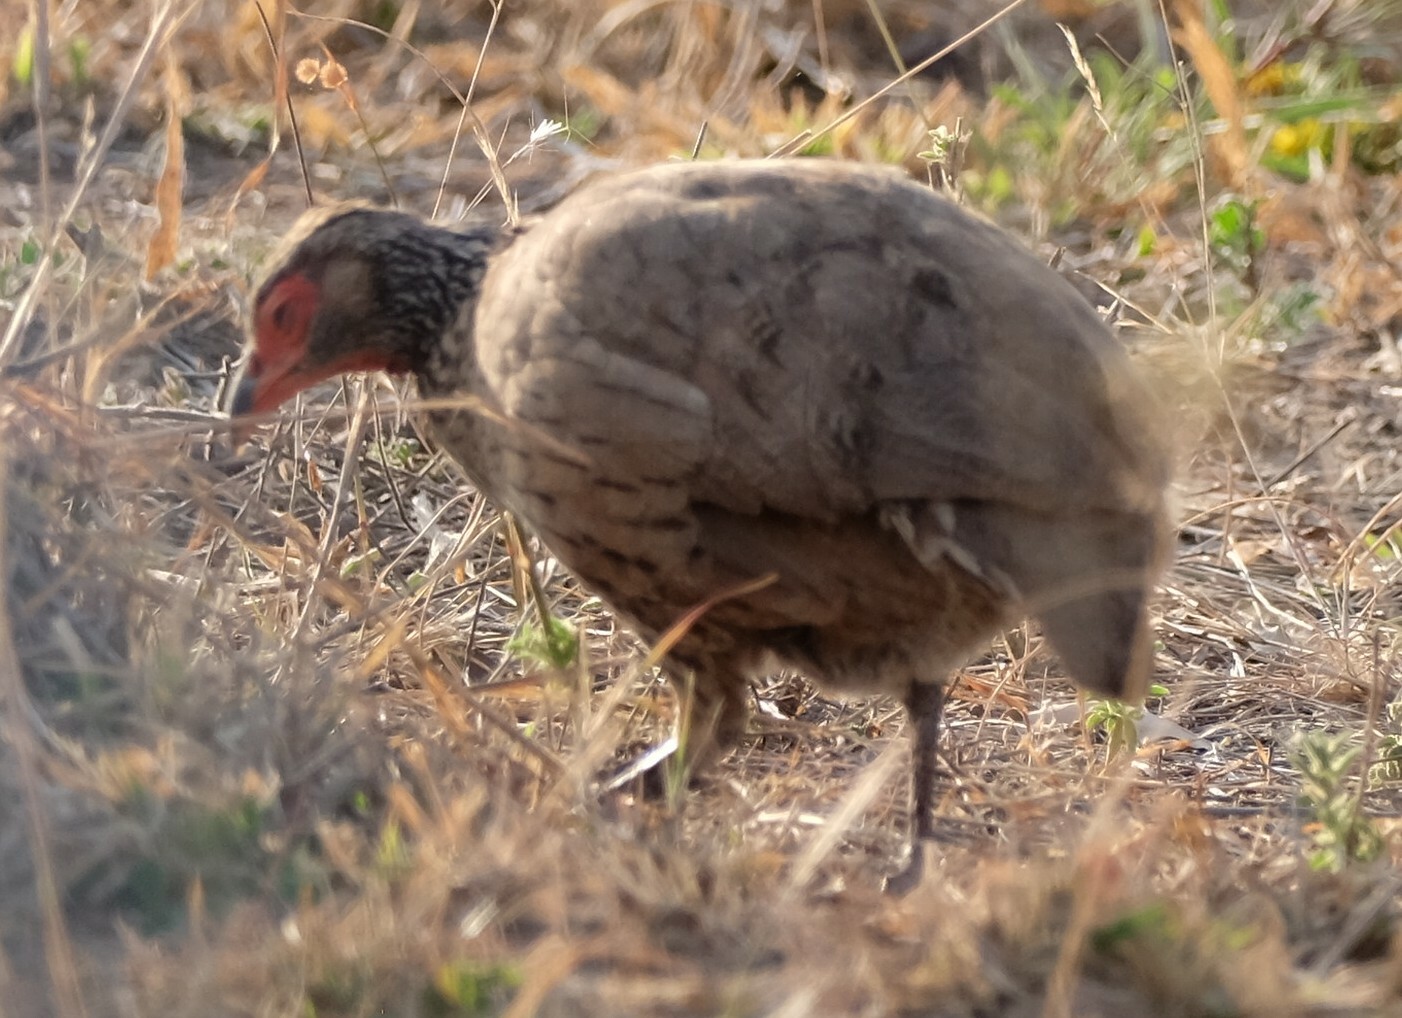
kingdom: Animalia
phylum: Chordata
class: Aves
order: Galliformes
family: Phasianidae
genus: Pternistis
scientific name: Pternistis swainsonii
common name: Swainson's spurfowl
